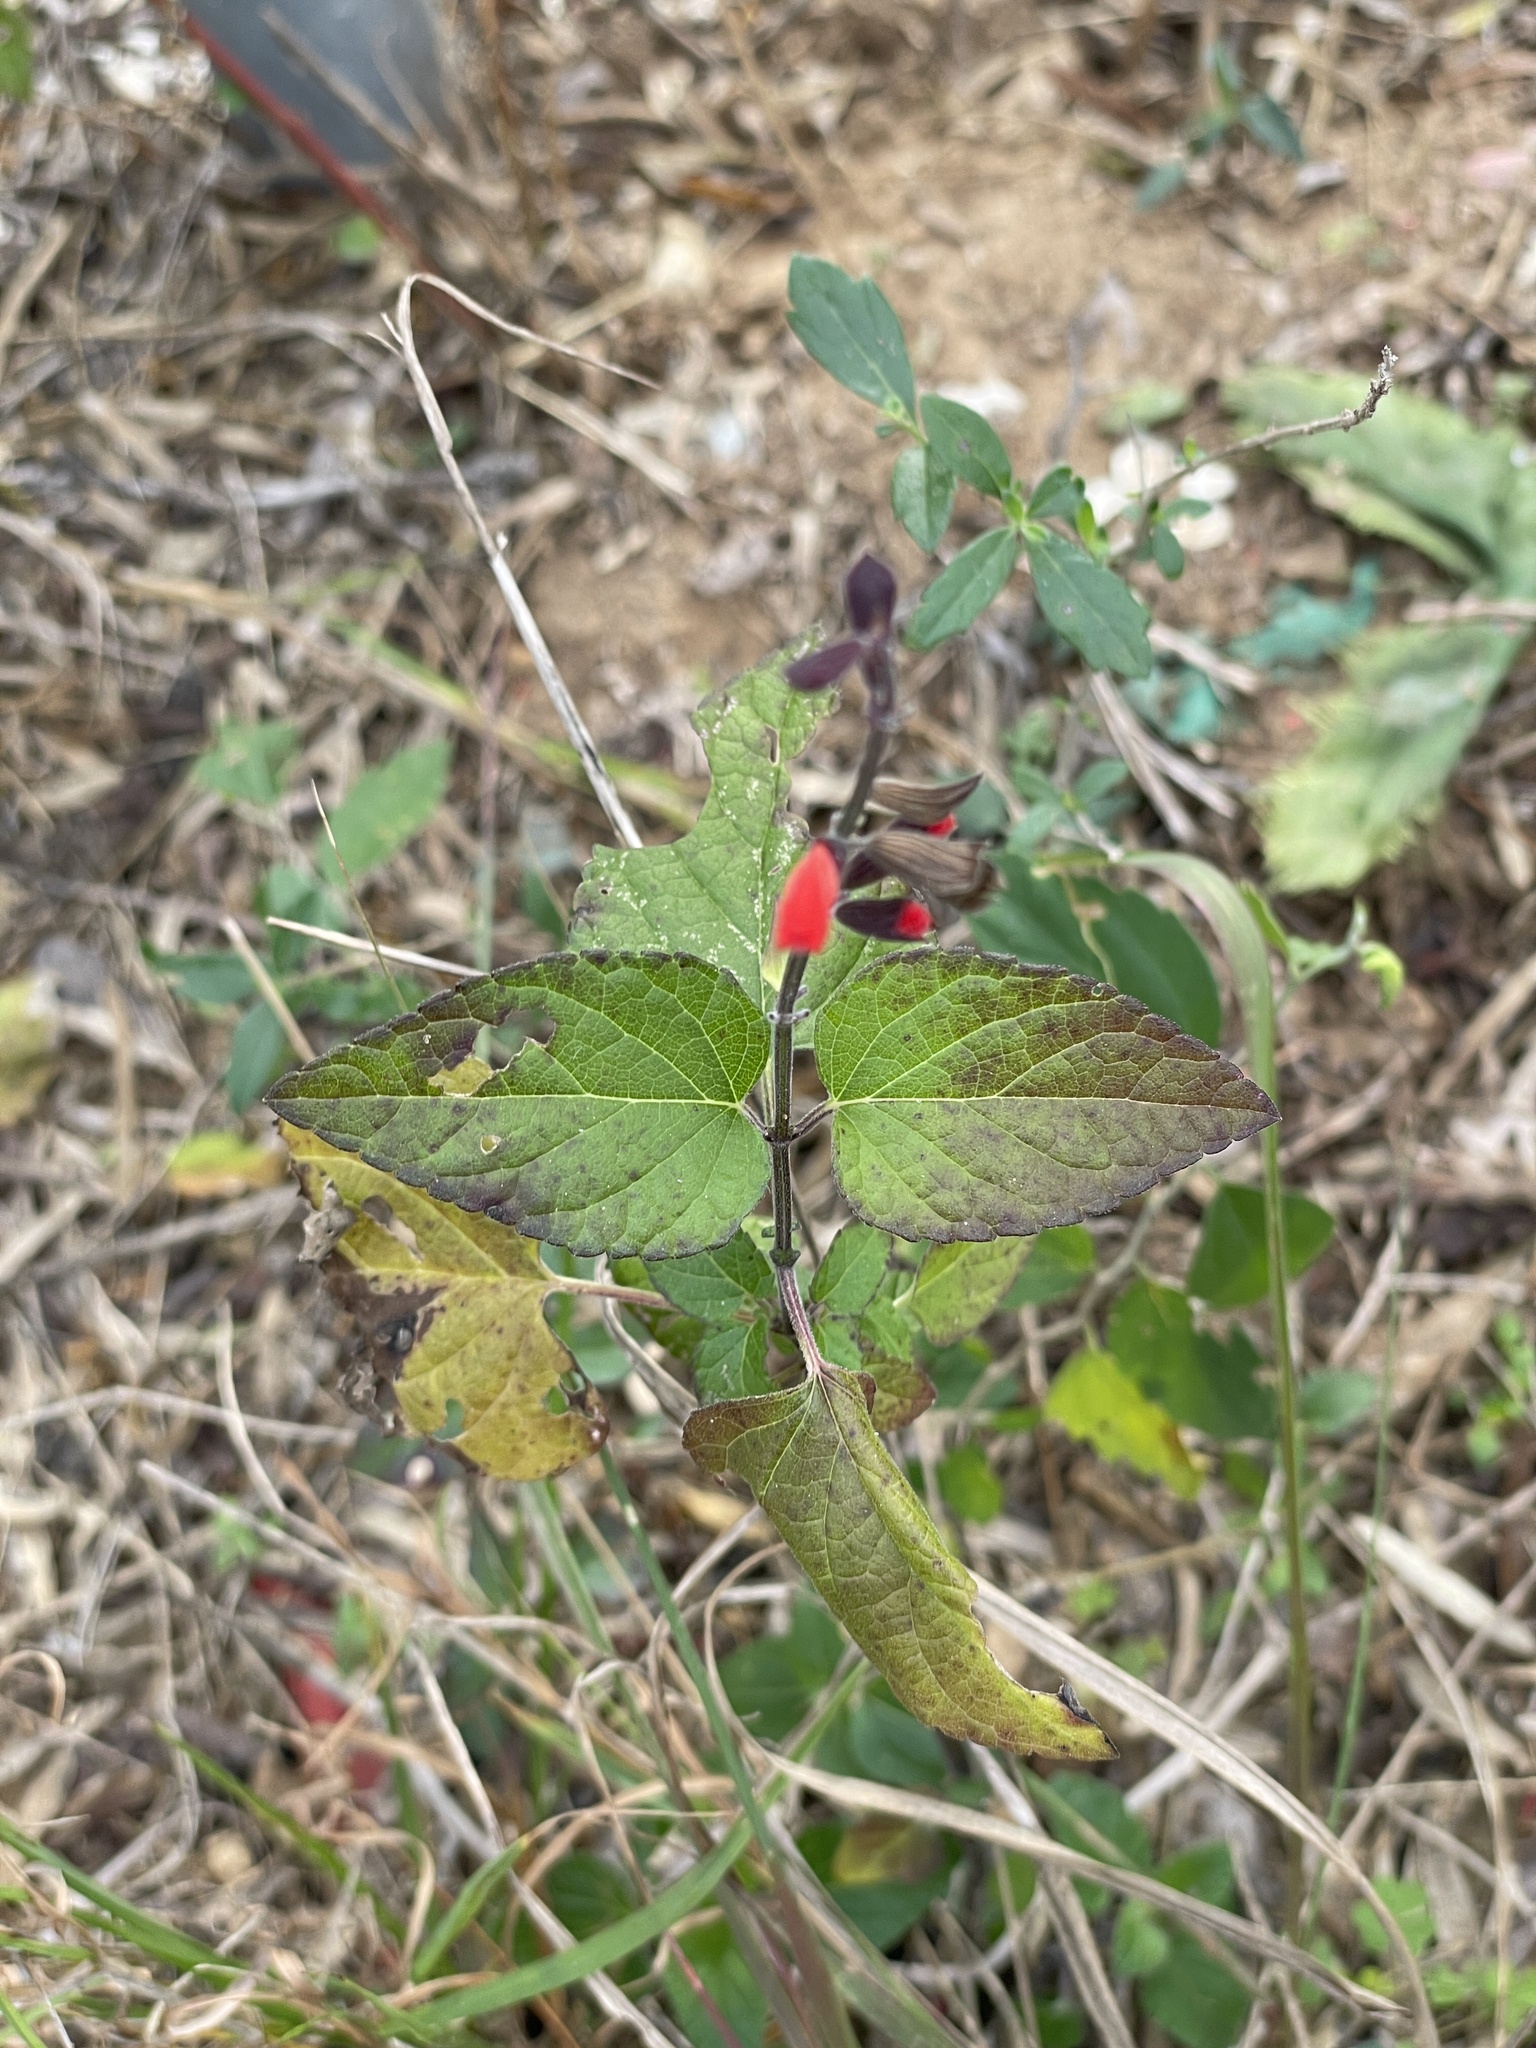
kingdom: Plantae
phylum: Tracheophyta
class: Magnoliopsida
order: Lamiales
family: Lamiaceae
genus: Salvia
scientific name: Salvia coccinea
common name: Blood sage
